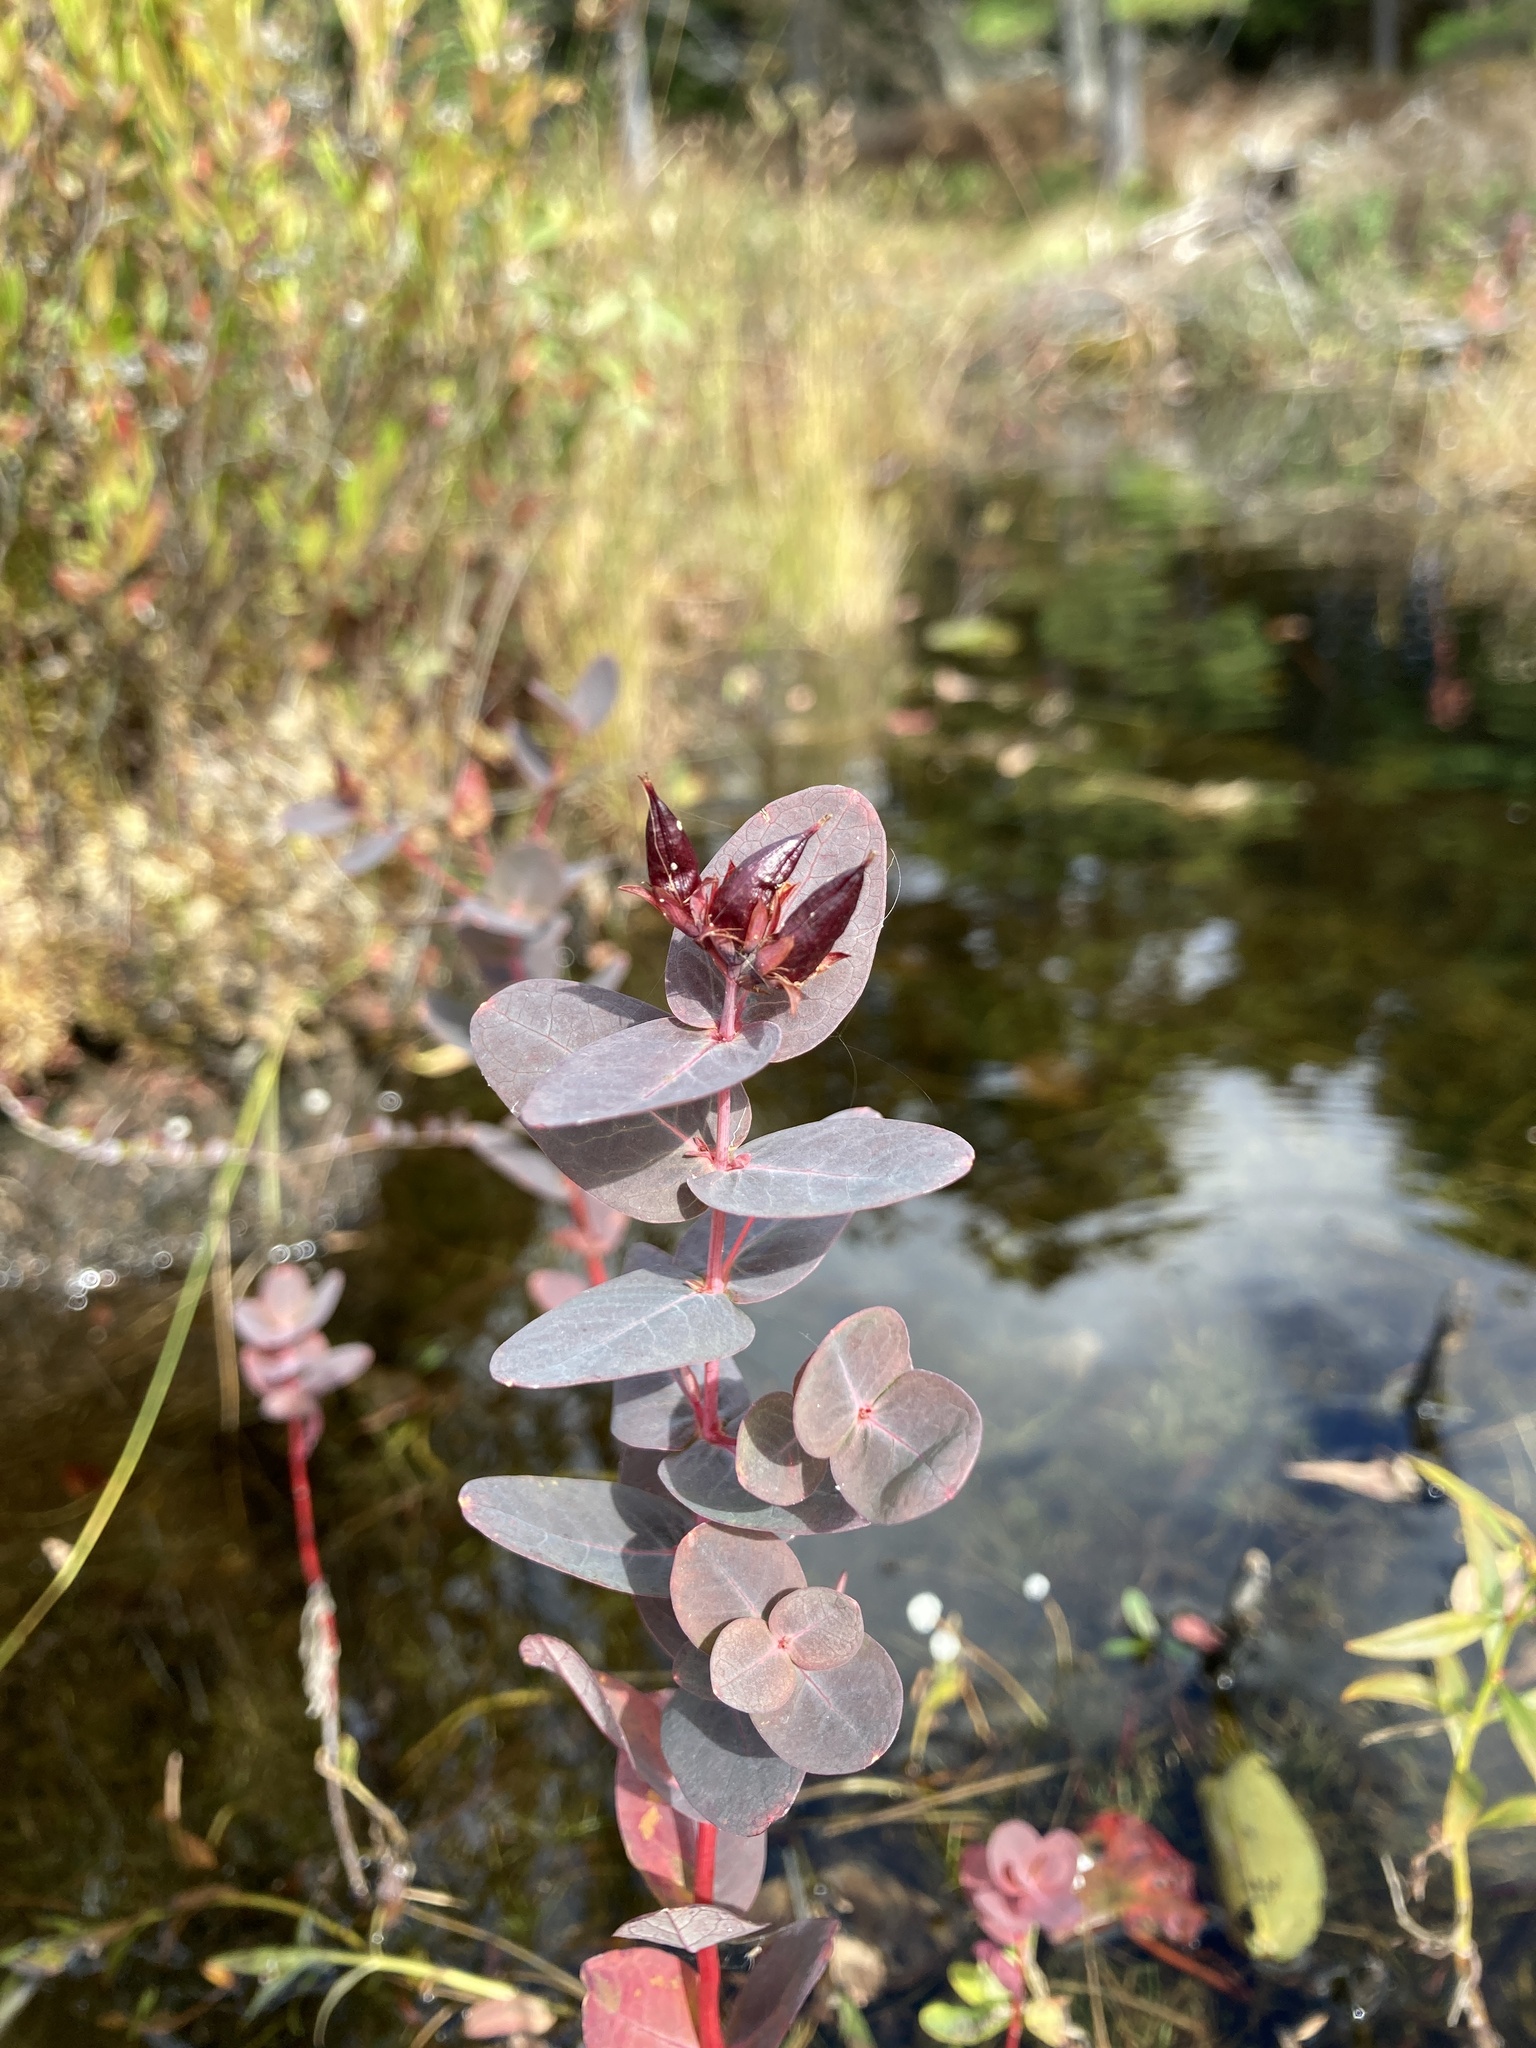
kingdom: Plantae
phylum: Tracheophyta
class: Magnoliopsida
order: Malpighiales
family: Hypericaceae
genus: Triadenum
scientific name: Triadenum virginicum
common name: Marsh st. john's-wort
